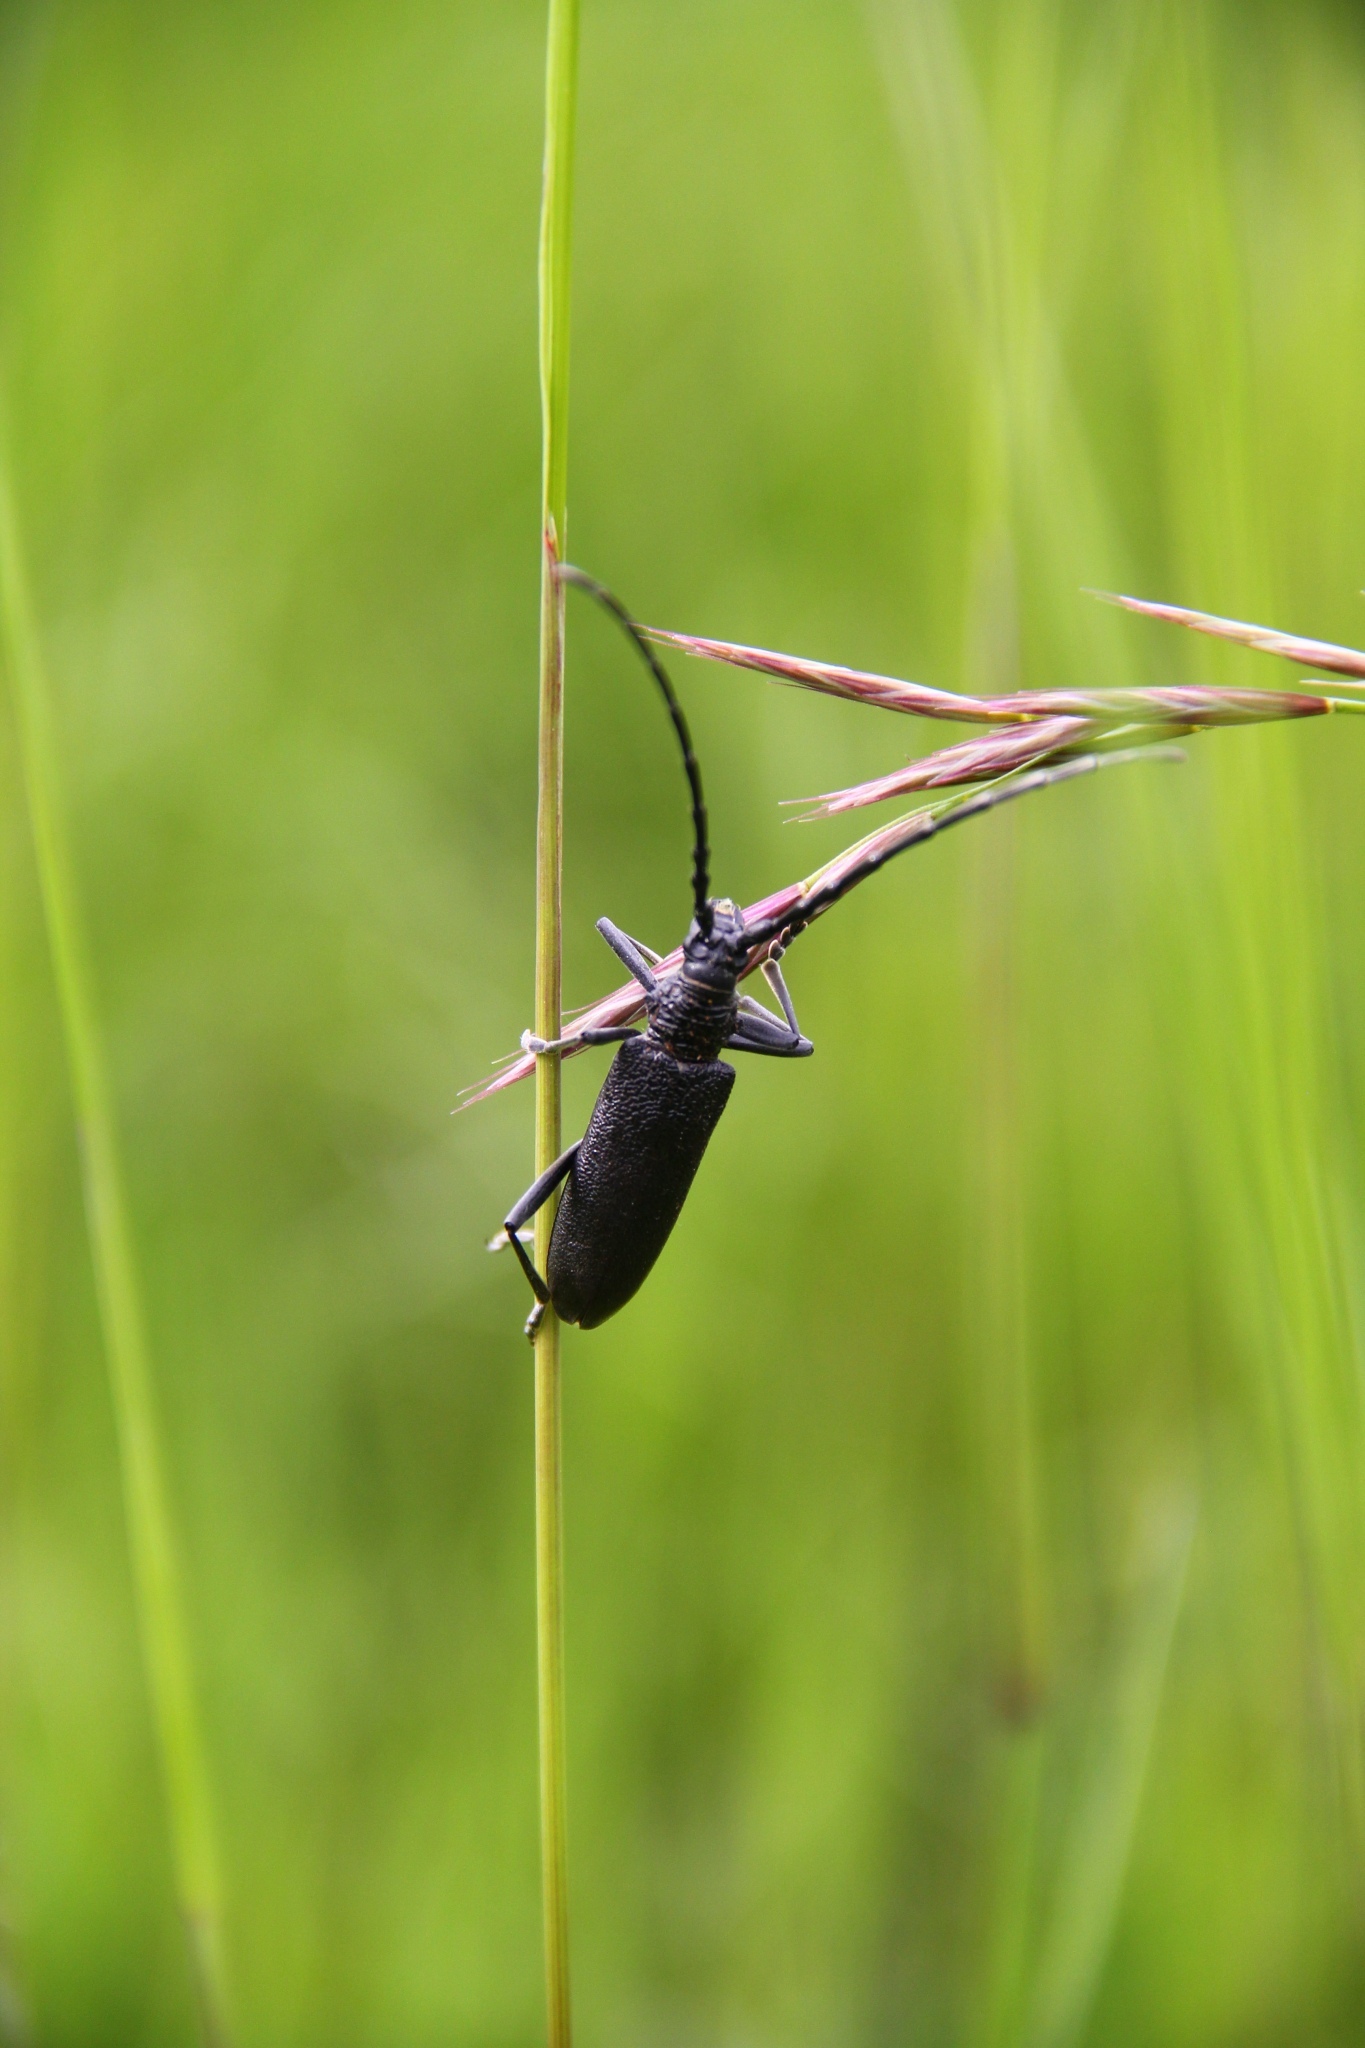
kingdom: Animalia
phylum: Arthropoda
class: Insecta
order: Coleoptera
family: Cerambycidae
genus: Cerambyx
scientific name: Cerambyx scopolii
